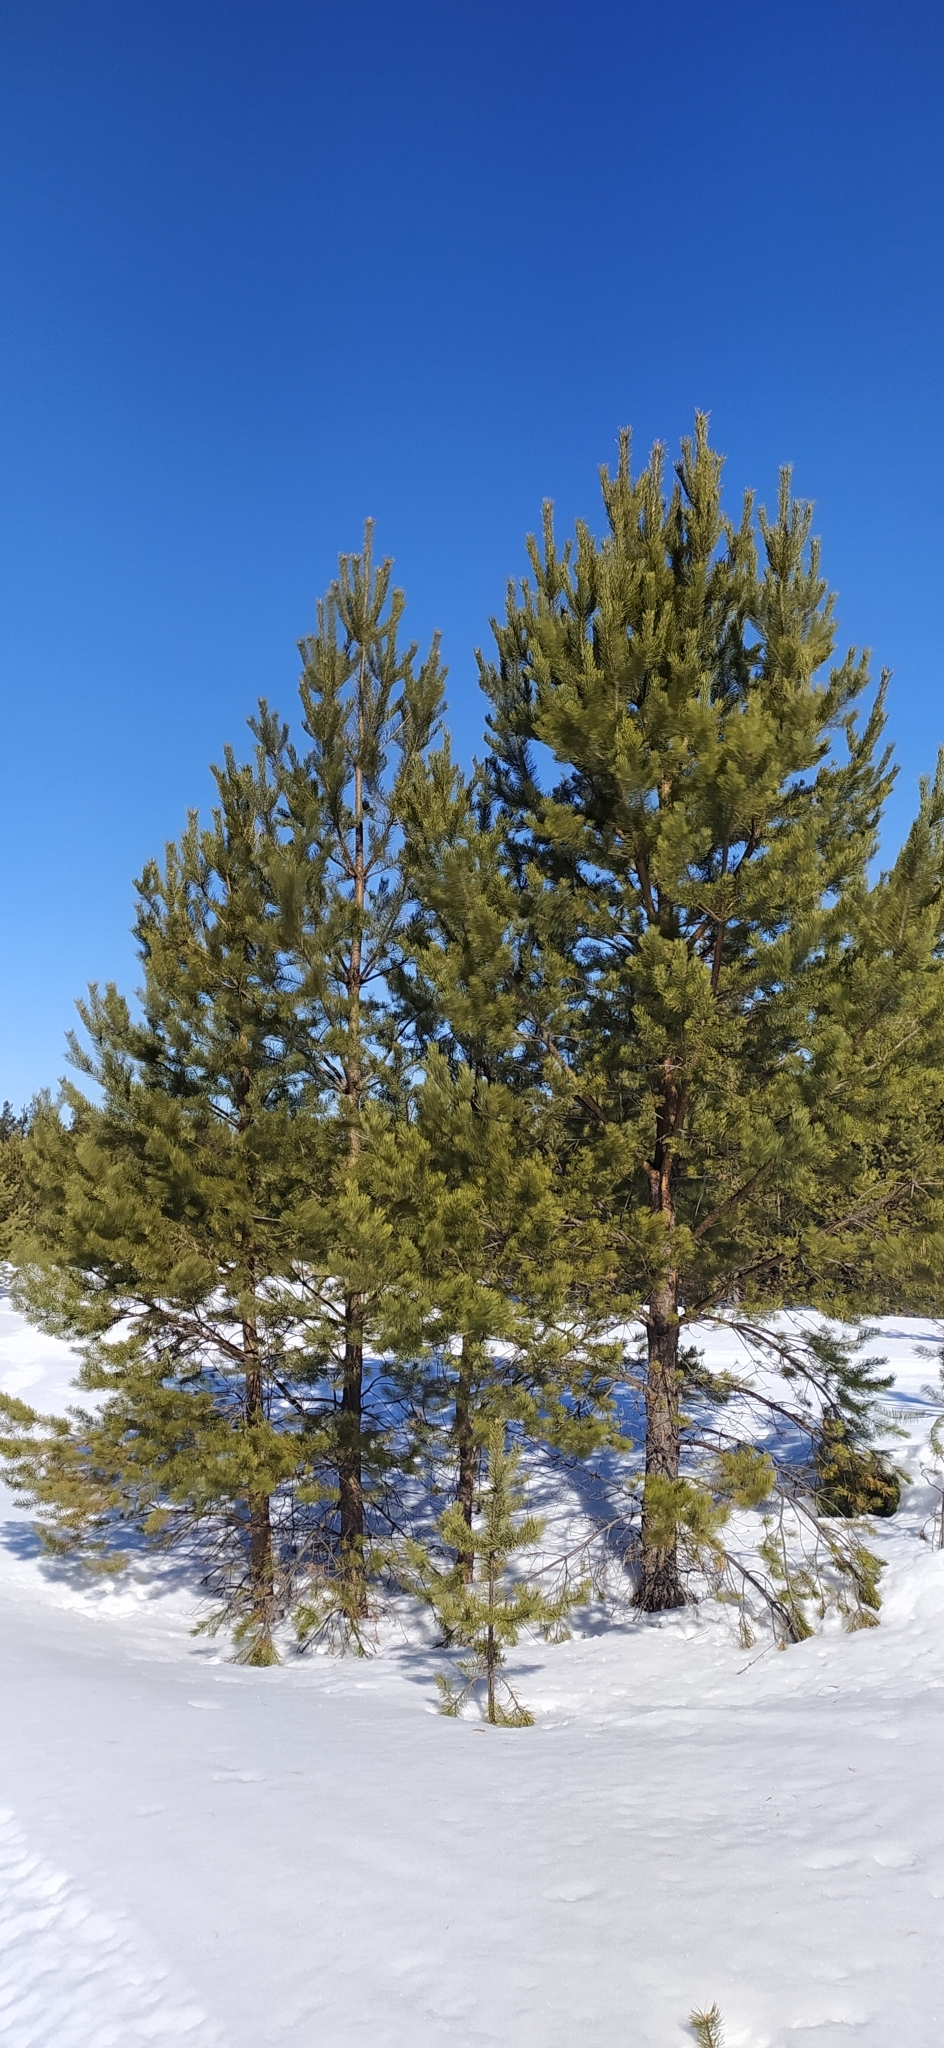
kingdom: Plantae
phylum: Tracheophyta
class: Pinopsida
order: Pinales
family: Pinaceae
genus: Pinus
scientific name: Pinus sylvestris
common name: Scots pine
